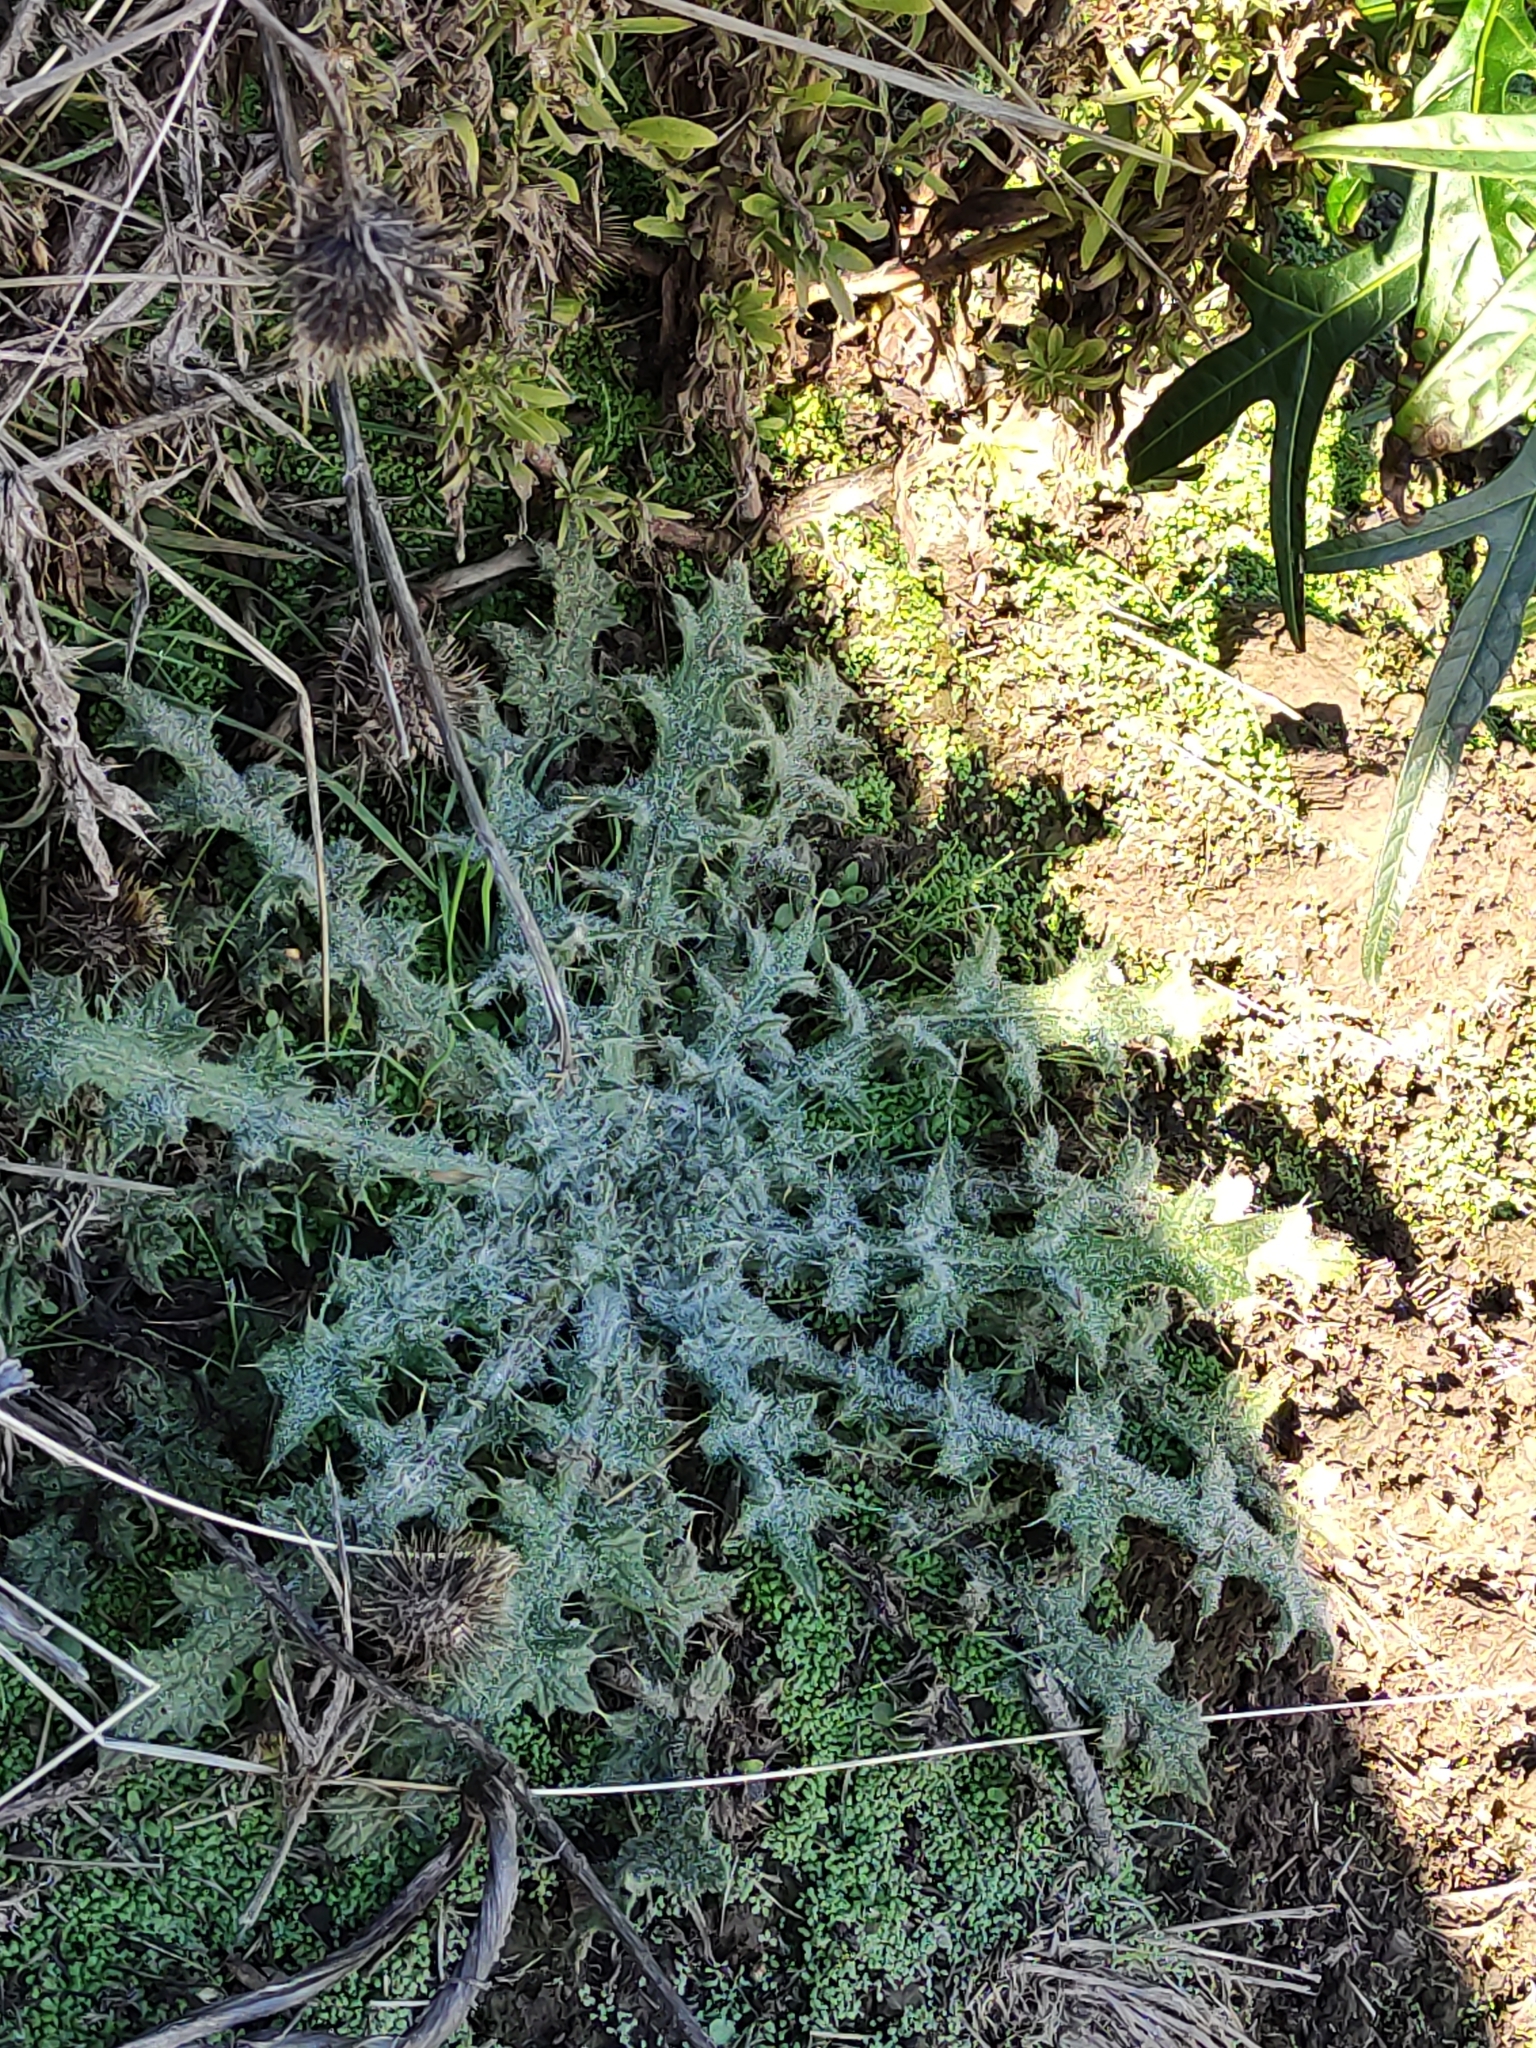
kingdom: Plantae
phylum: Tracheophyta
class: Magnoliopsida
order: Asterales
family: Asteraceae
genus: Cirsium
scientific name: Cirsium vulgare
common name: Bull thistle
